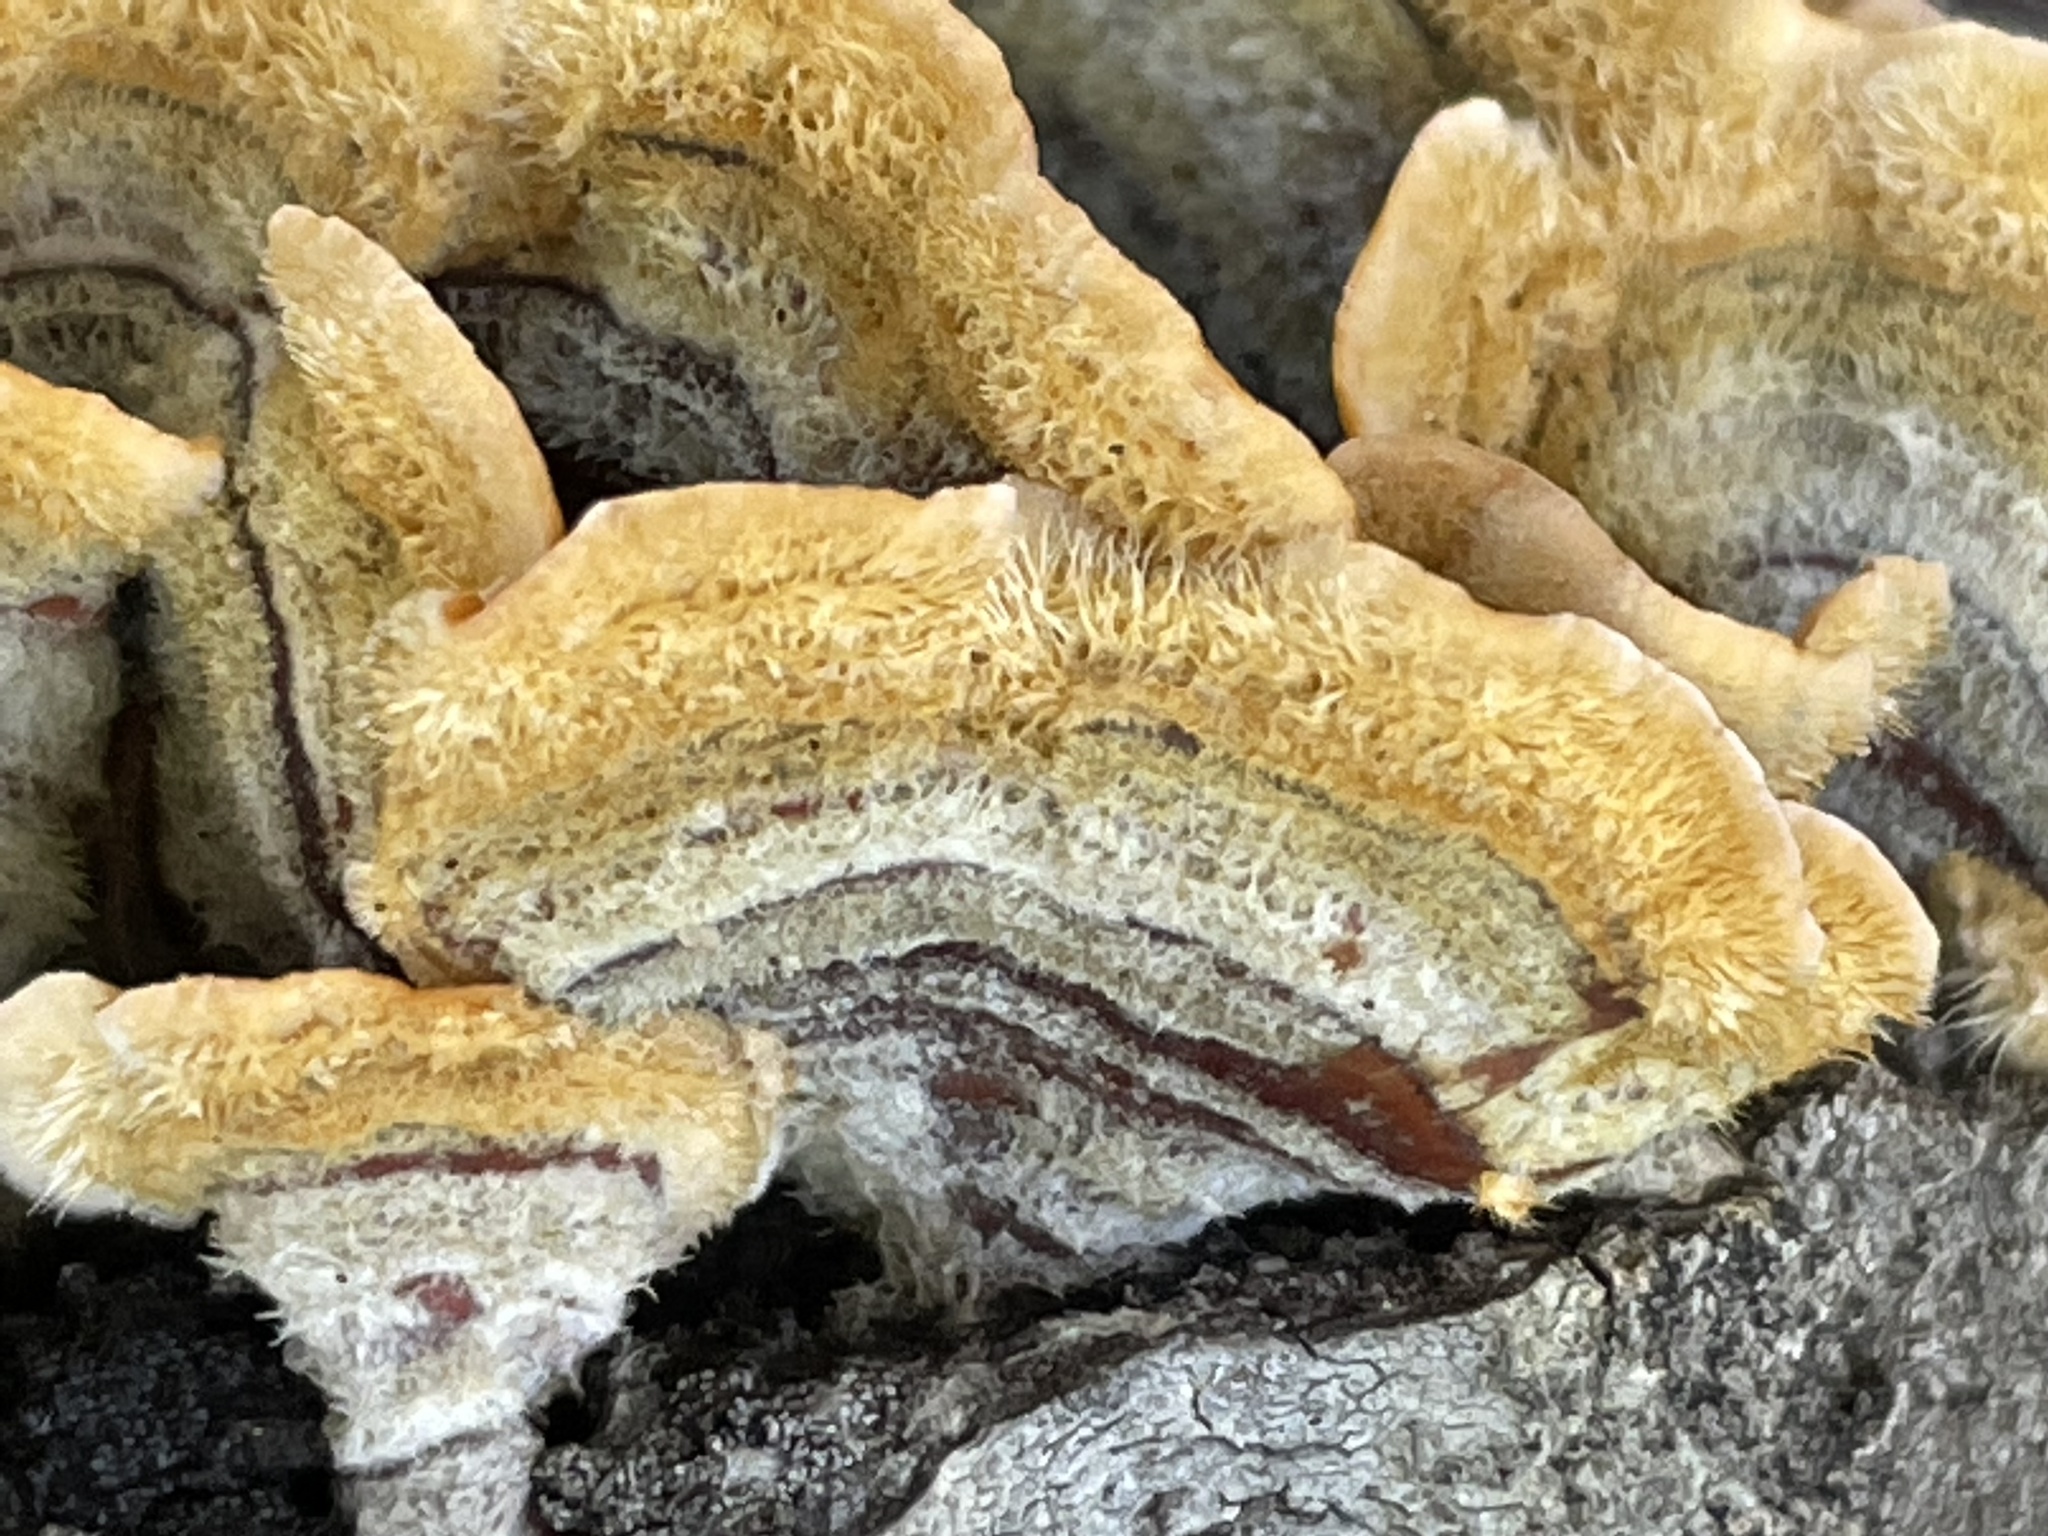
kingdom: Fungi
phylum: Basidiomycota
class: Agaricomycetes
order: Russulales
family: Stereaceae
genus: Stereum
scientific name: Stereum hirsutum
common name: Hairy curtain crust
